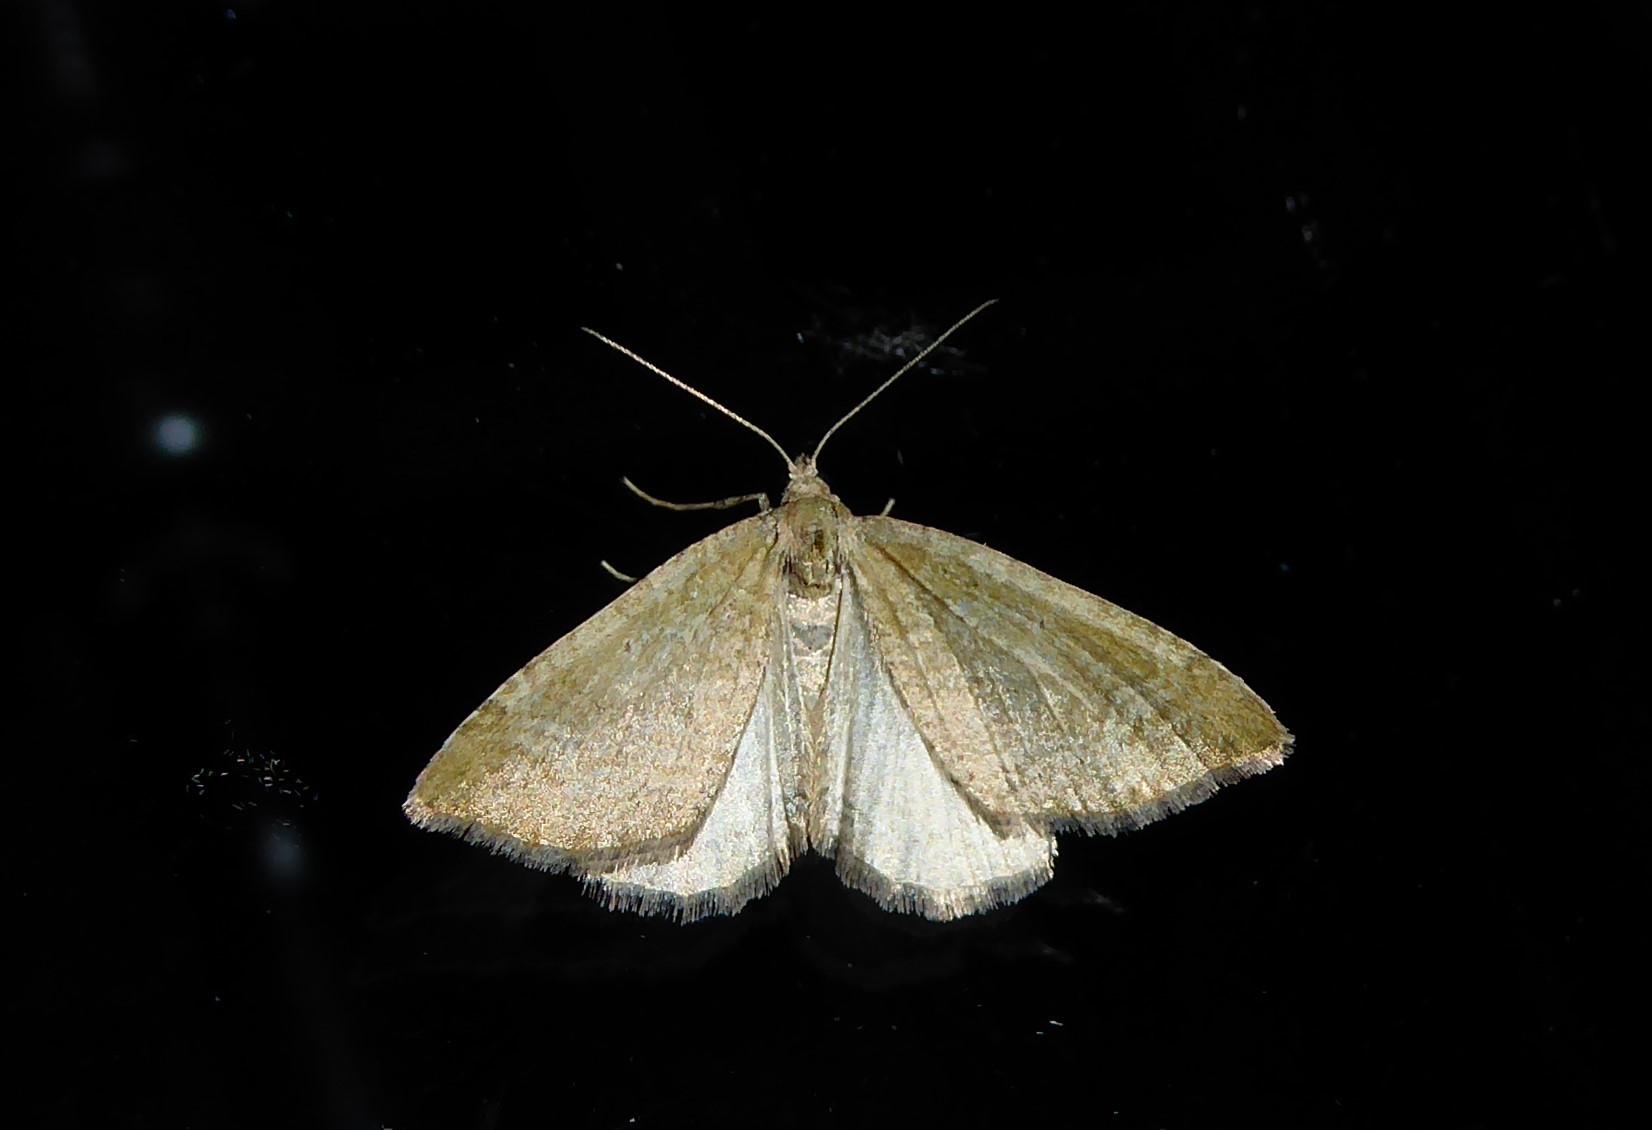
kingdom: Animalia
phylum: Arthropoda
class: Insecta
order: Lepidoptera
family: Geometridae
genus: Epyaxa
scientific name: Epyaxa rosearia
